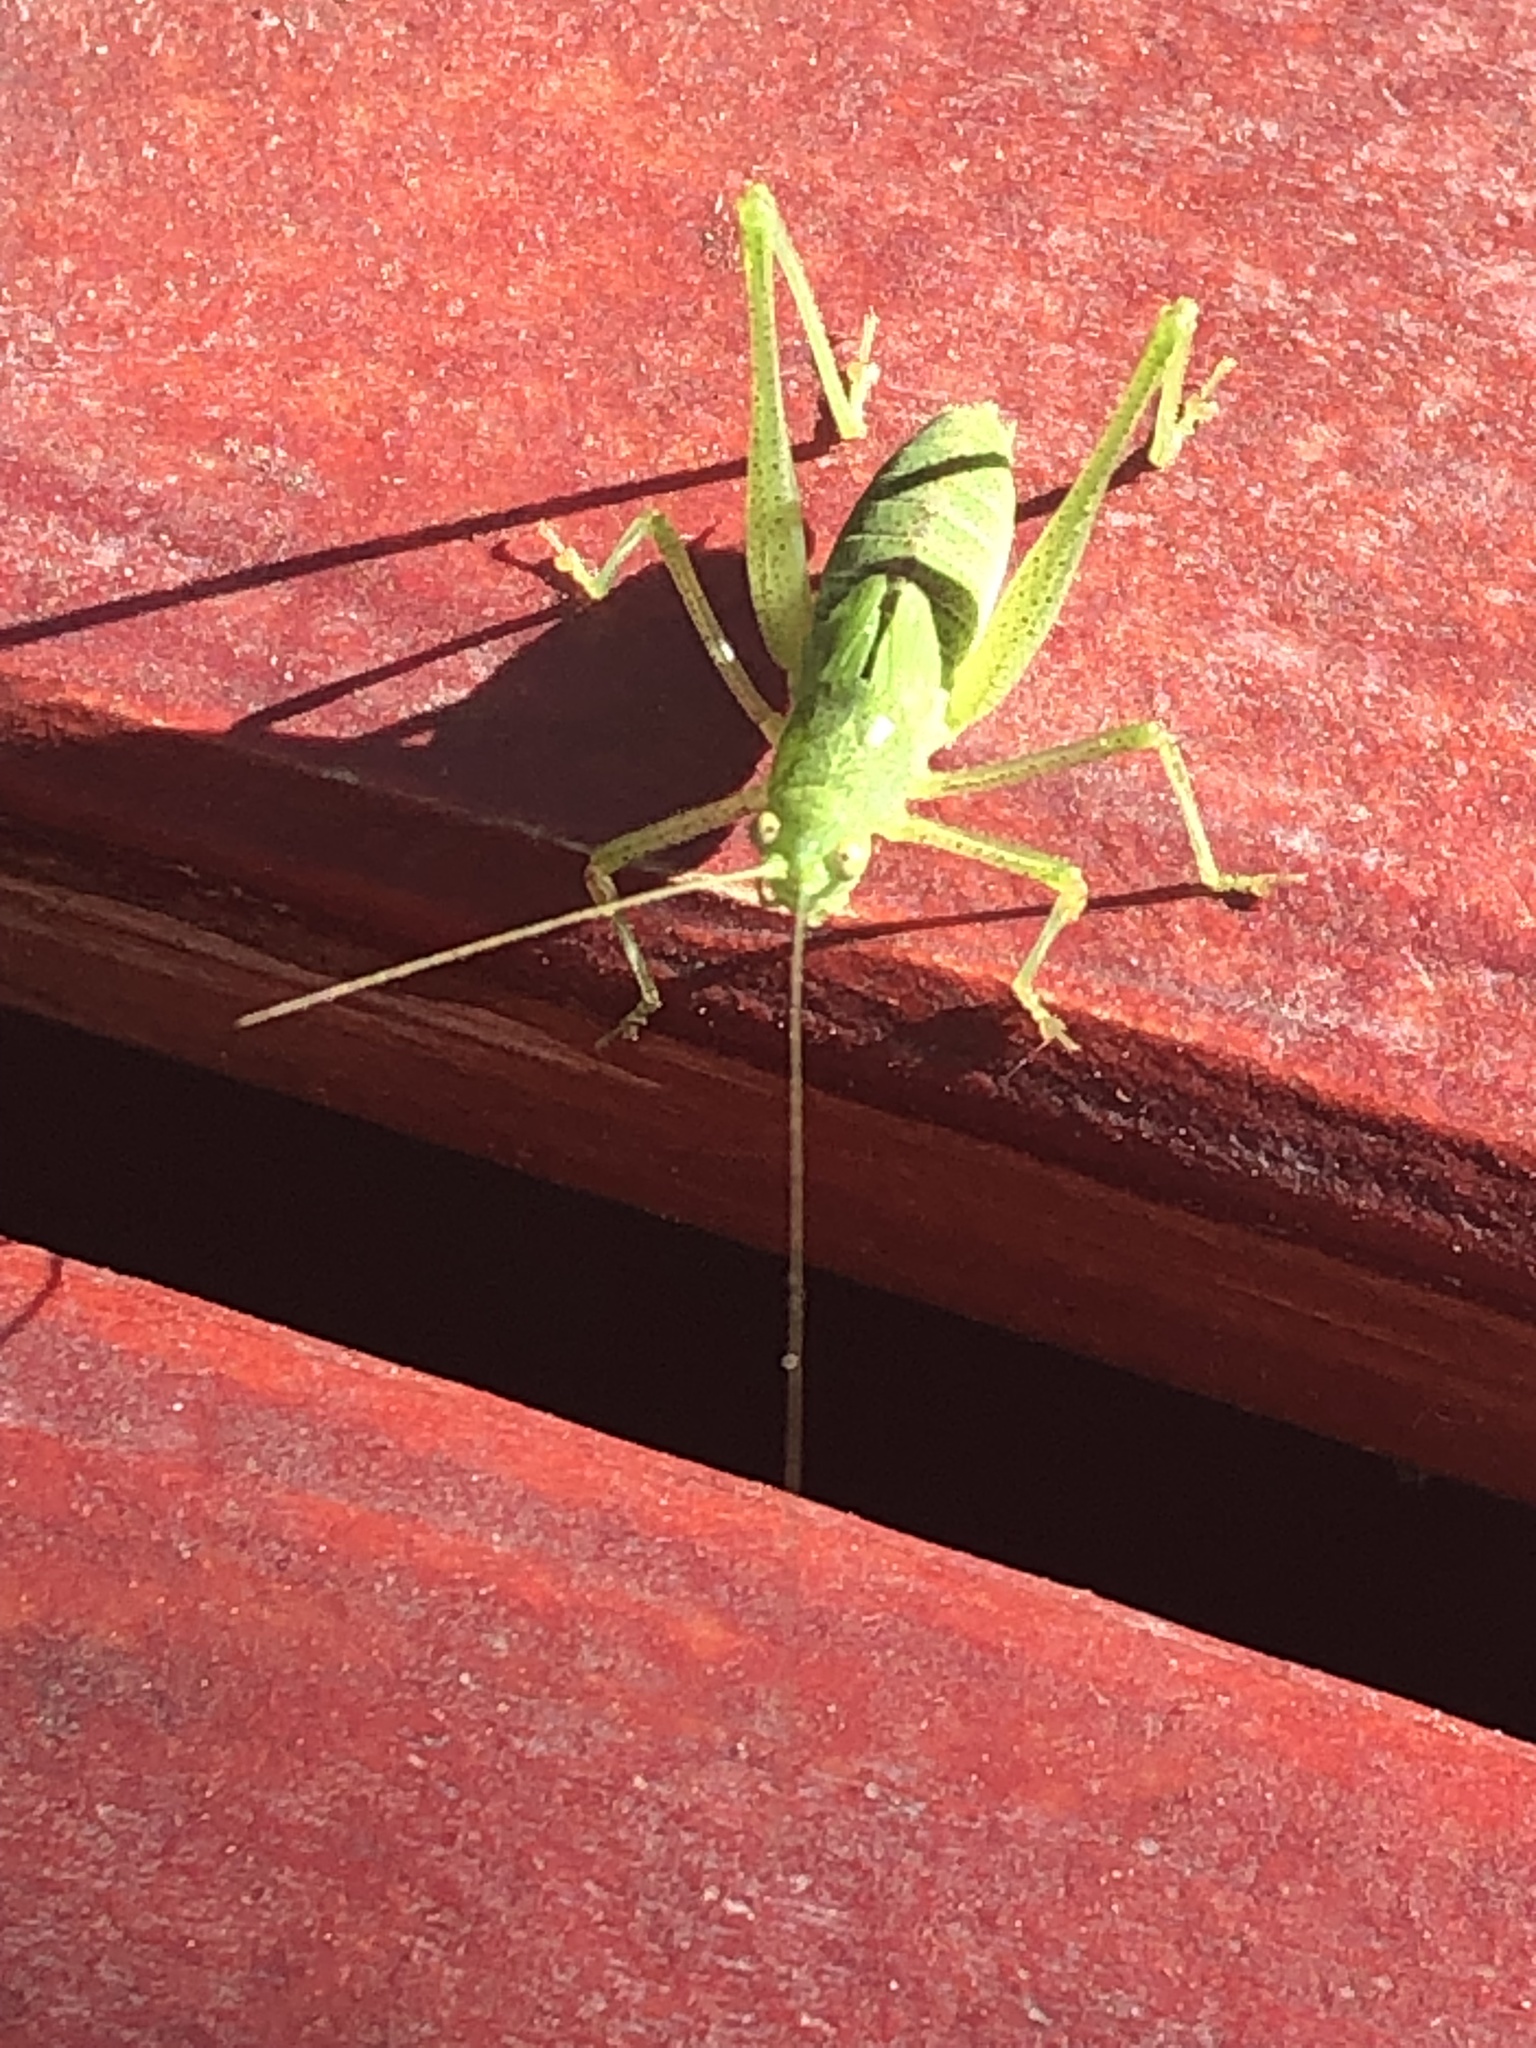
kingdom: Animalia
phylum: Arthropoda
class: Insecta
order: Orthoptera
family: Tettigoniidae
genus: Phaneroptera
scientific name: Phaneroptera nana
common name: Southern sickle bush-cricket
